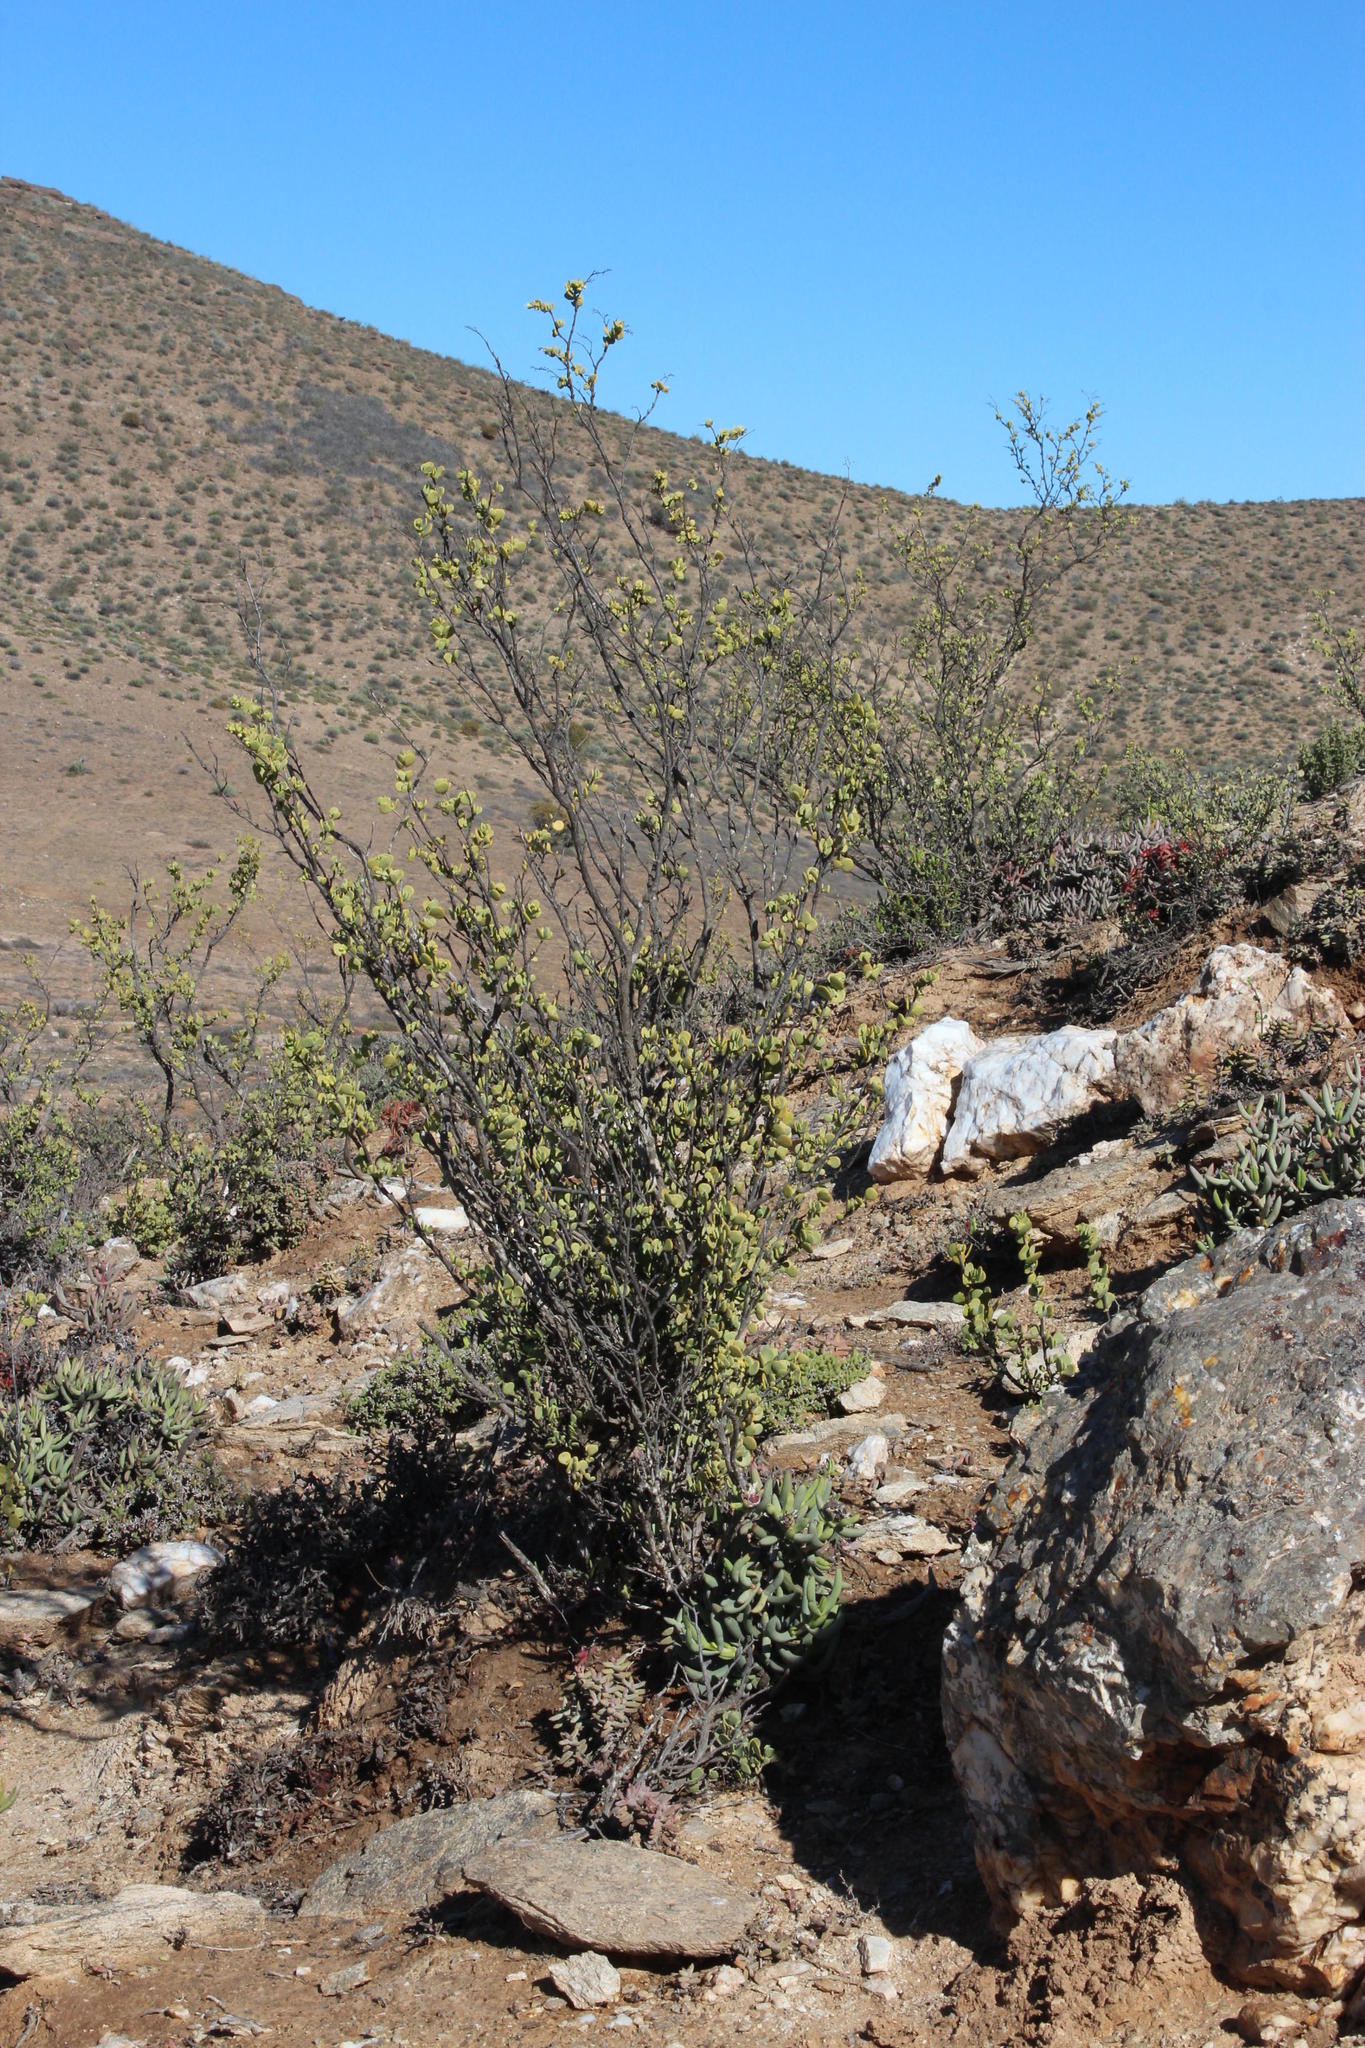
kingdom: Plantae
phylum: Tracheophyta
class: Magnoliopsida
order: Zygophyllales
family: Zygophyllaceae
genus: Tetraena
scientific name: Tetraena prismatocarpa
